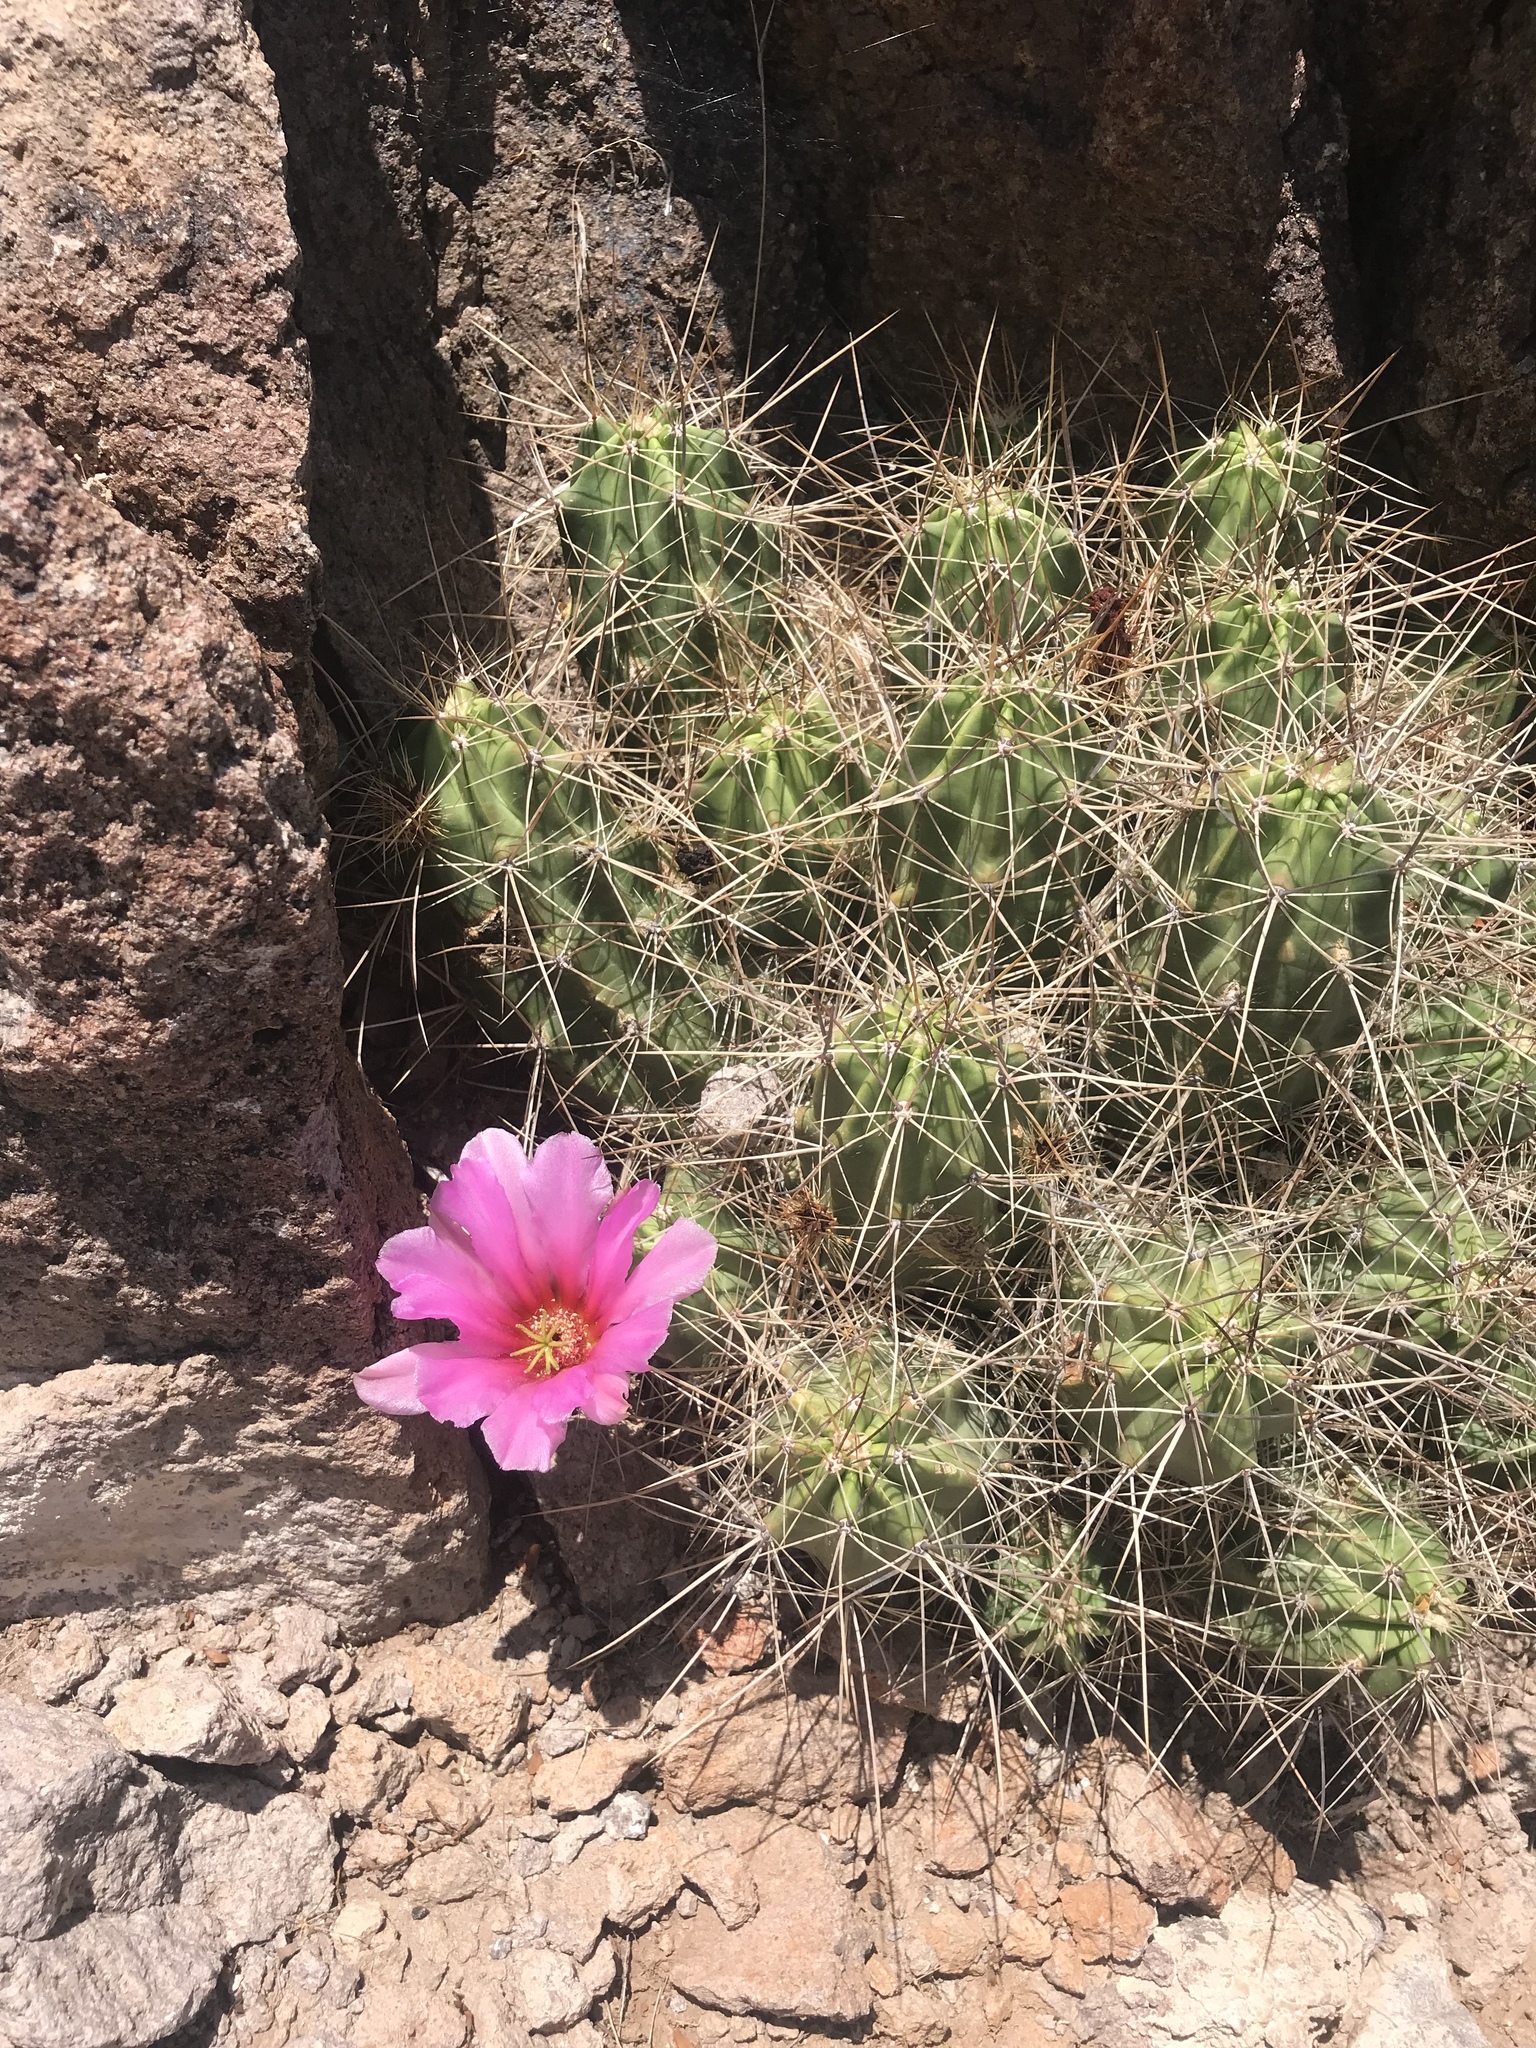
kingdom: Plantae
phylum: Tracheophyta
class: Magnoliopsida
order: Caryophyllales
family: Cactaceae
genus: Echinocereus
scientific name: Echinocereus enneacanthus
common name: Pitaya
